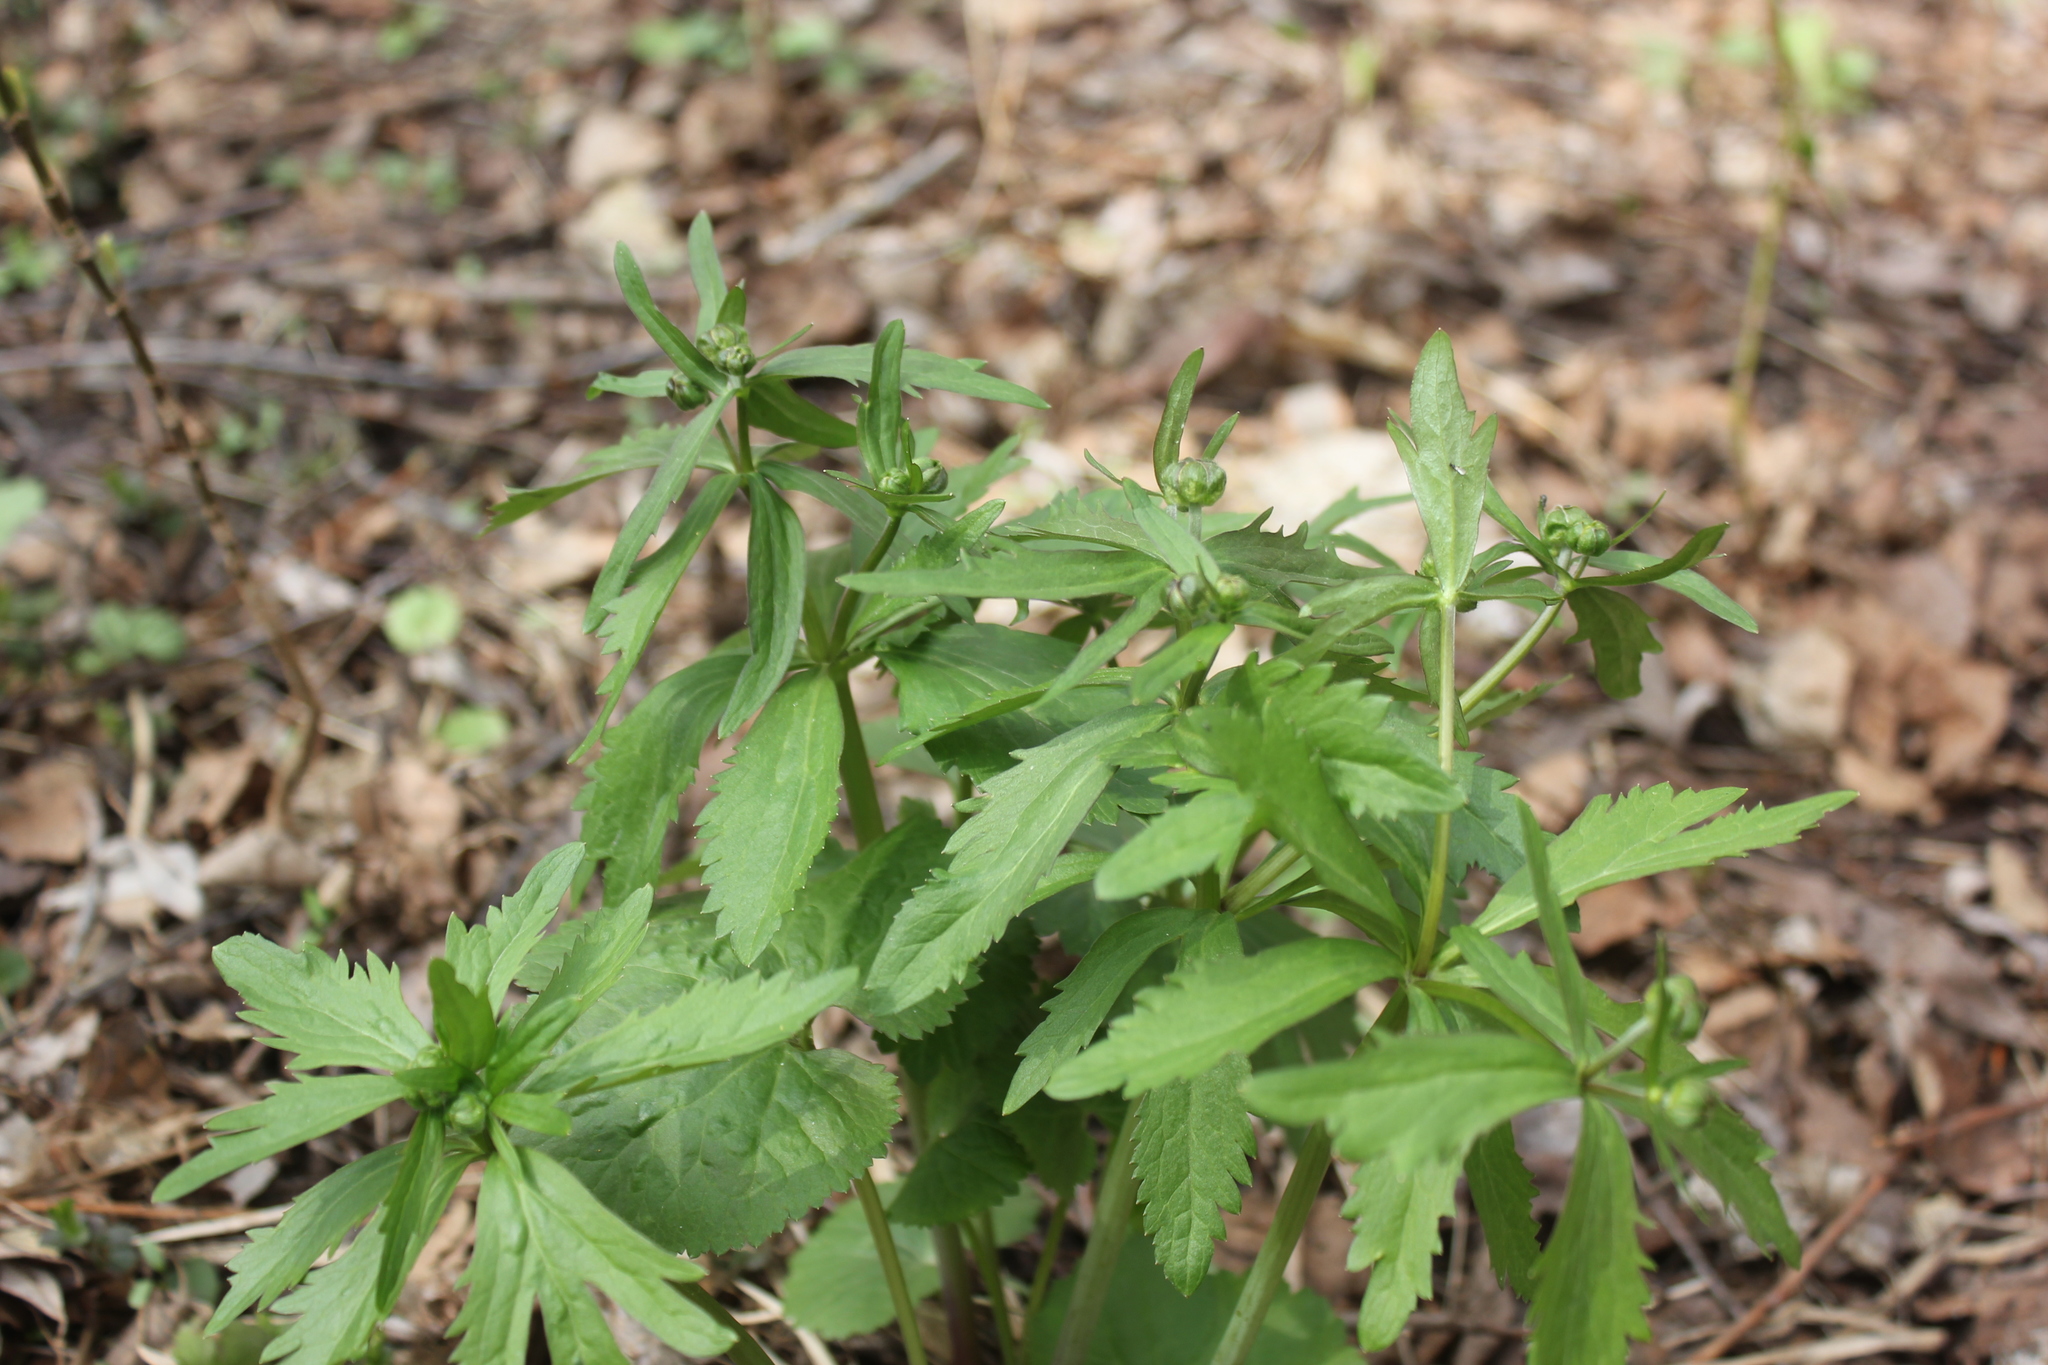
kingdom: Plantae
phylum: Tracheophyta
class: Magnoliopsida
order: Ranunculales
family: Ranunculaceae
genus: Ranunculus
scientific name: Ranunculus cassubicus
